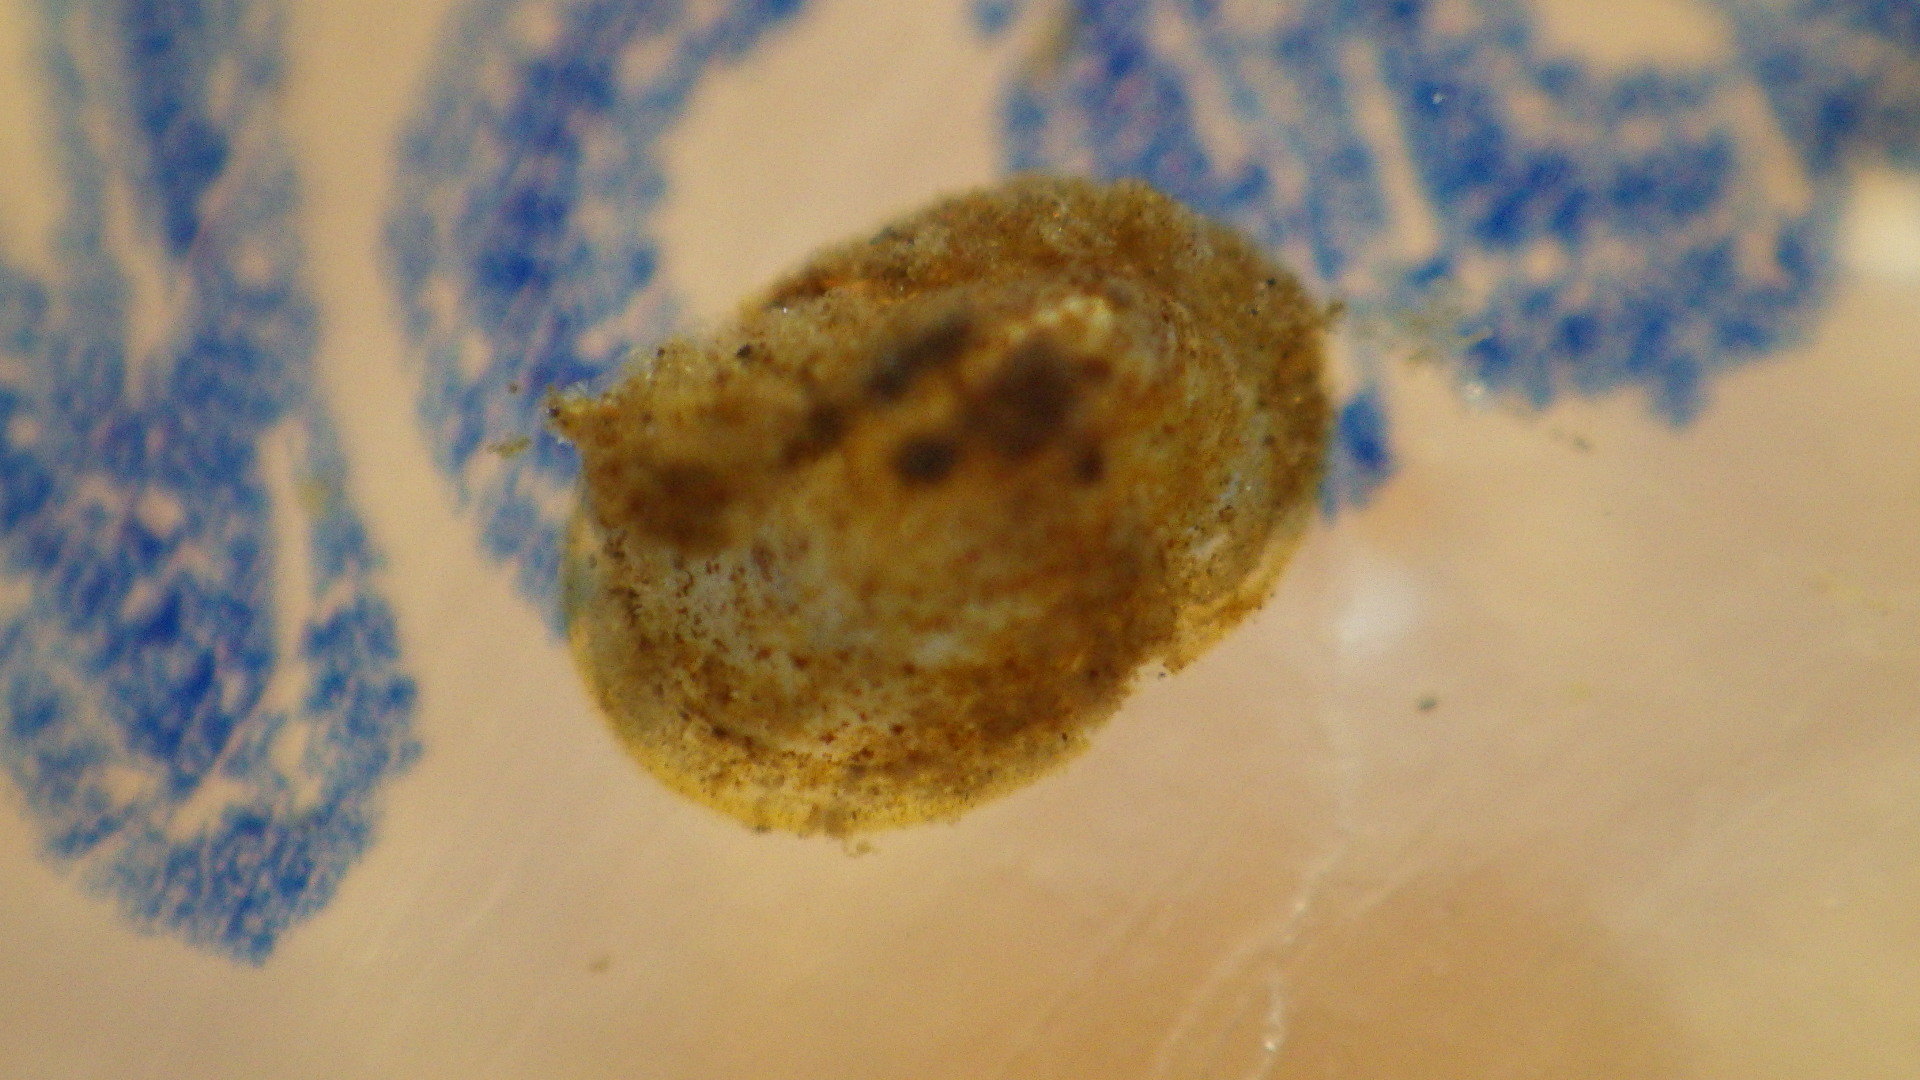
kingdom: Animalia
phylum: Mollusca
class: Gastropoda
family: Planorbidae
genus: Ferrissia
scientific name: Ferrissia rivularis
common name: Creeping ancylid
